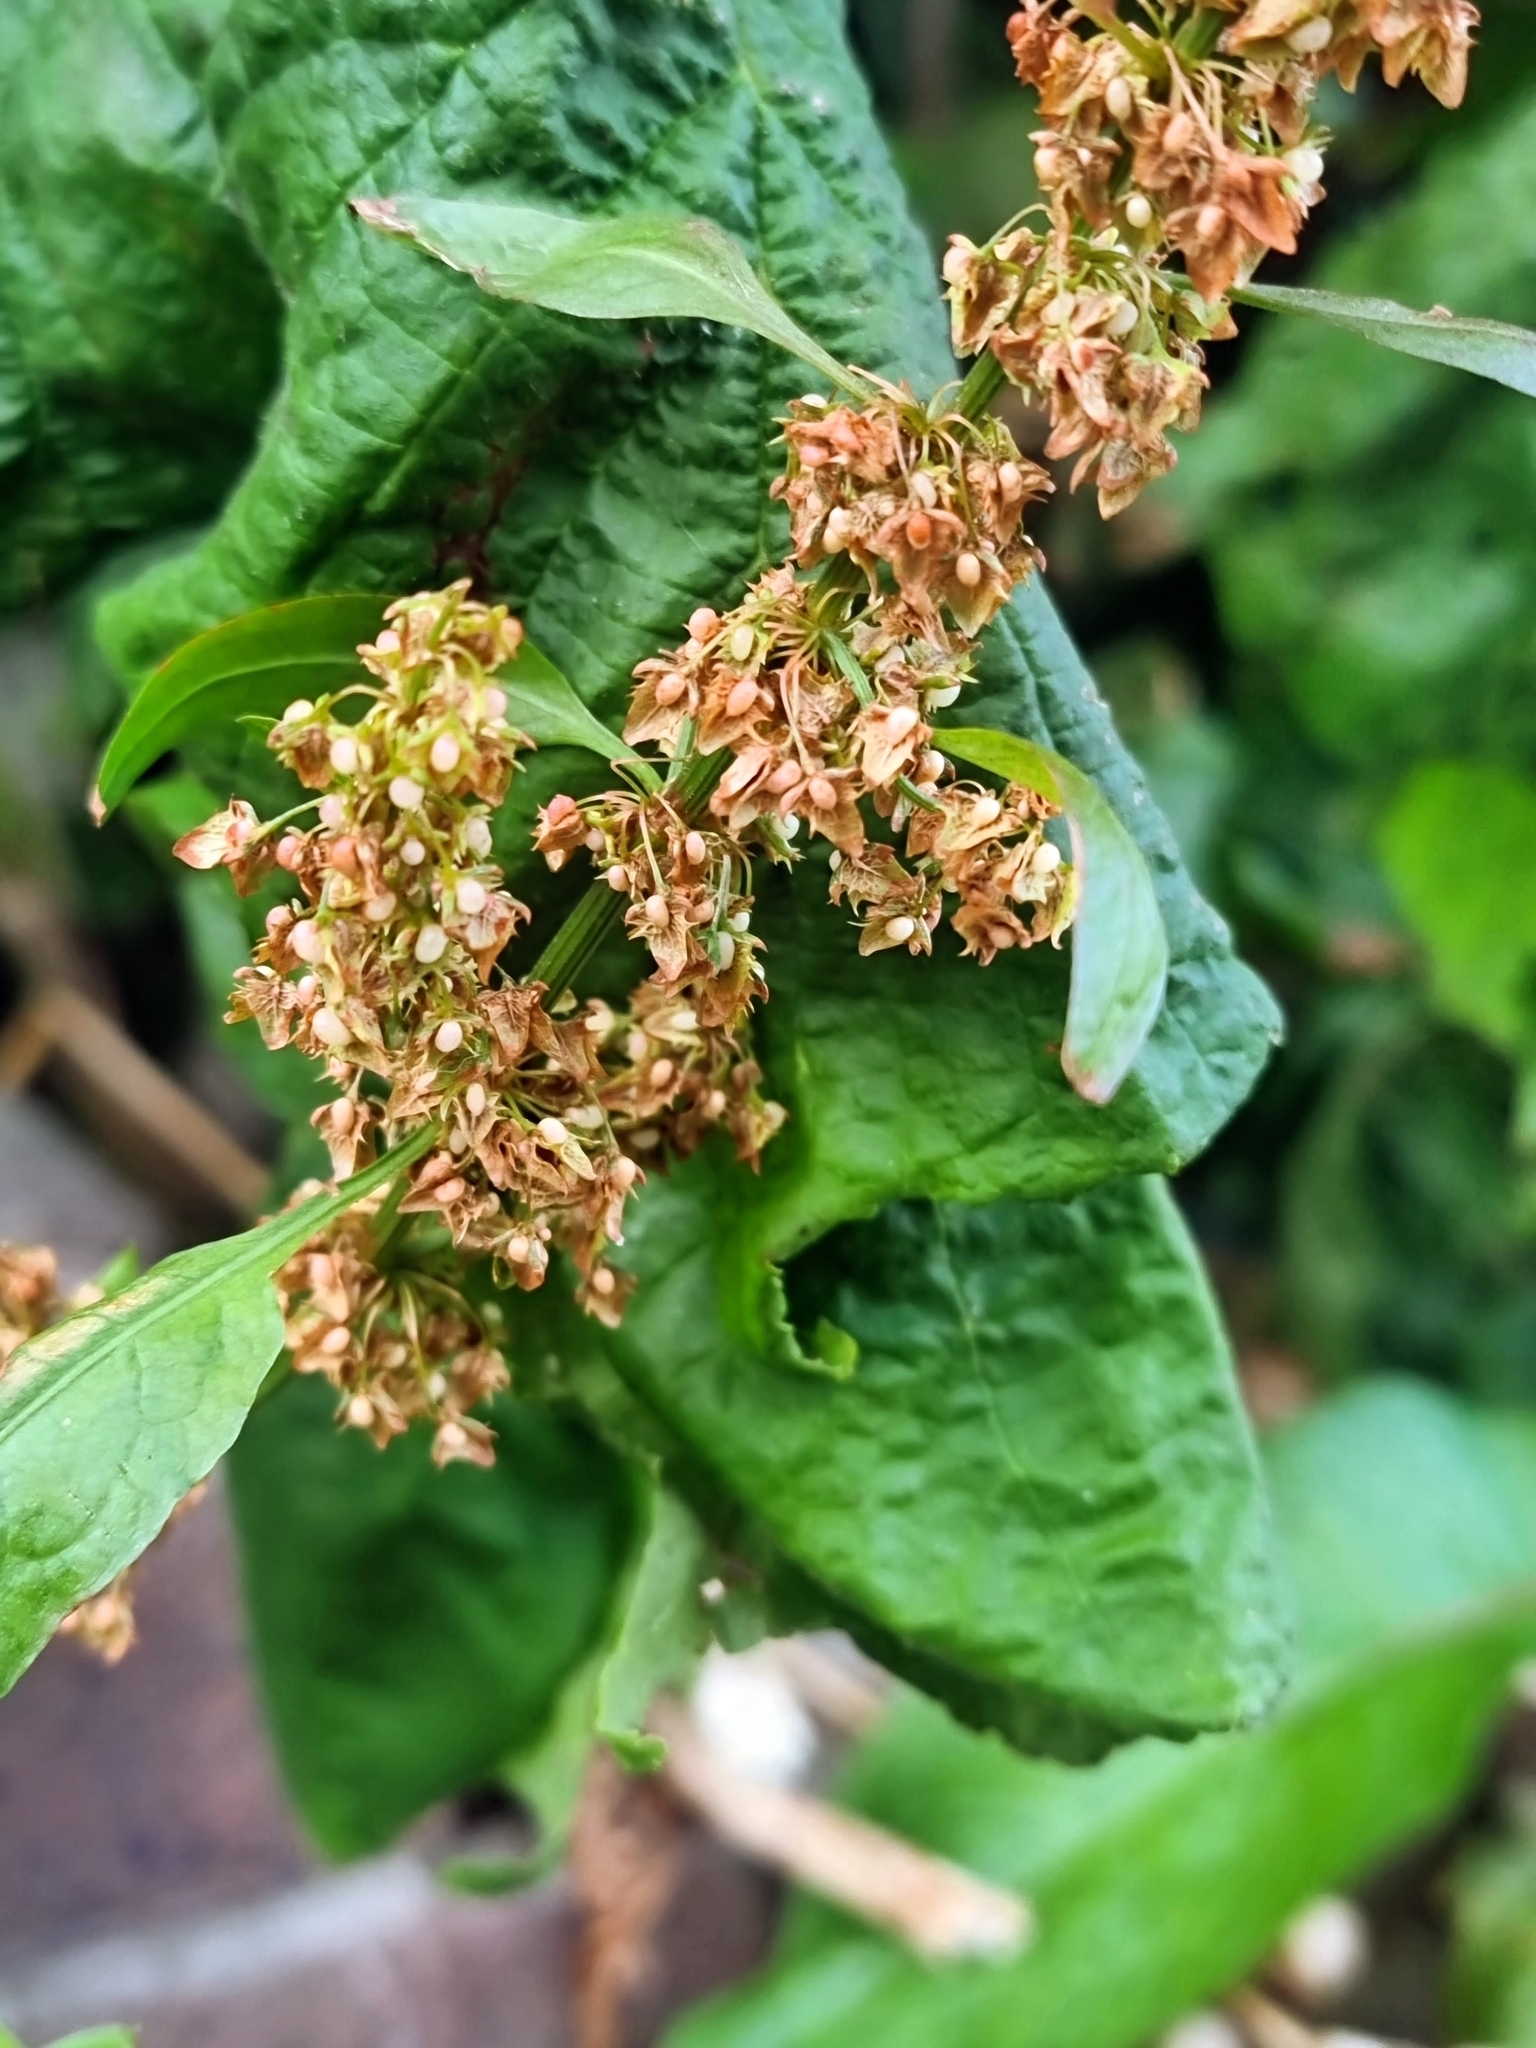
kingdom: Plantae
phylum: Tracheophyta
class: Magnoliopsida
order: Caryophyllales
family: Polygonaceae
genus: Rumex
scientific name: Rumex obtusifolius
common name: Bitter dock
